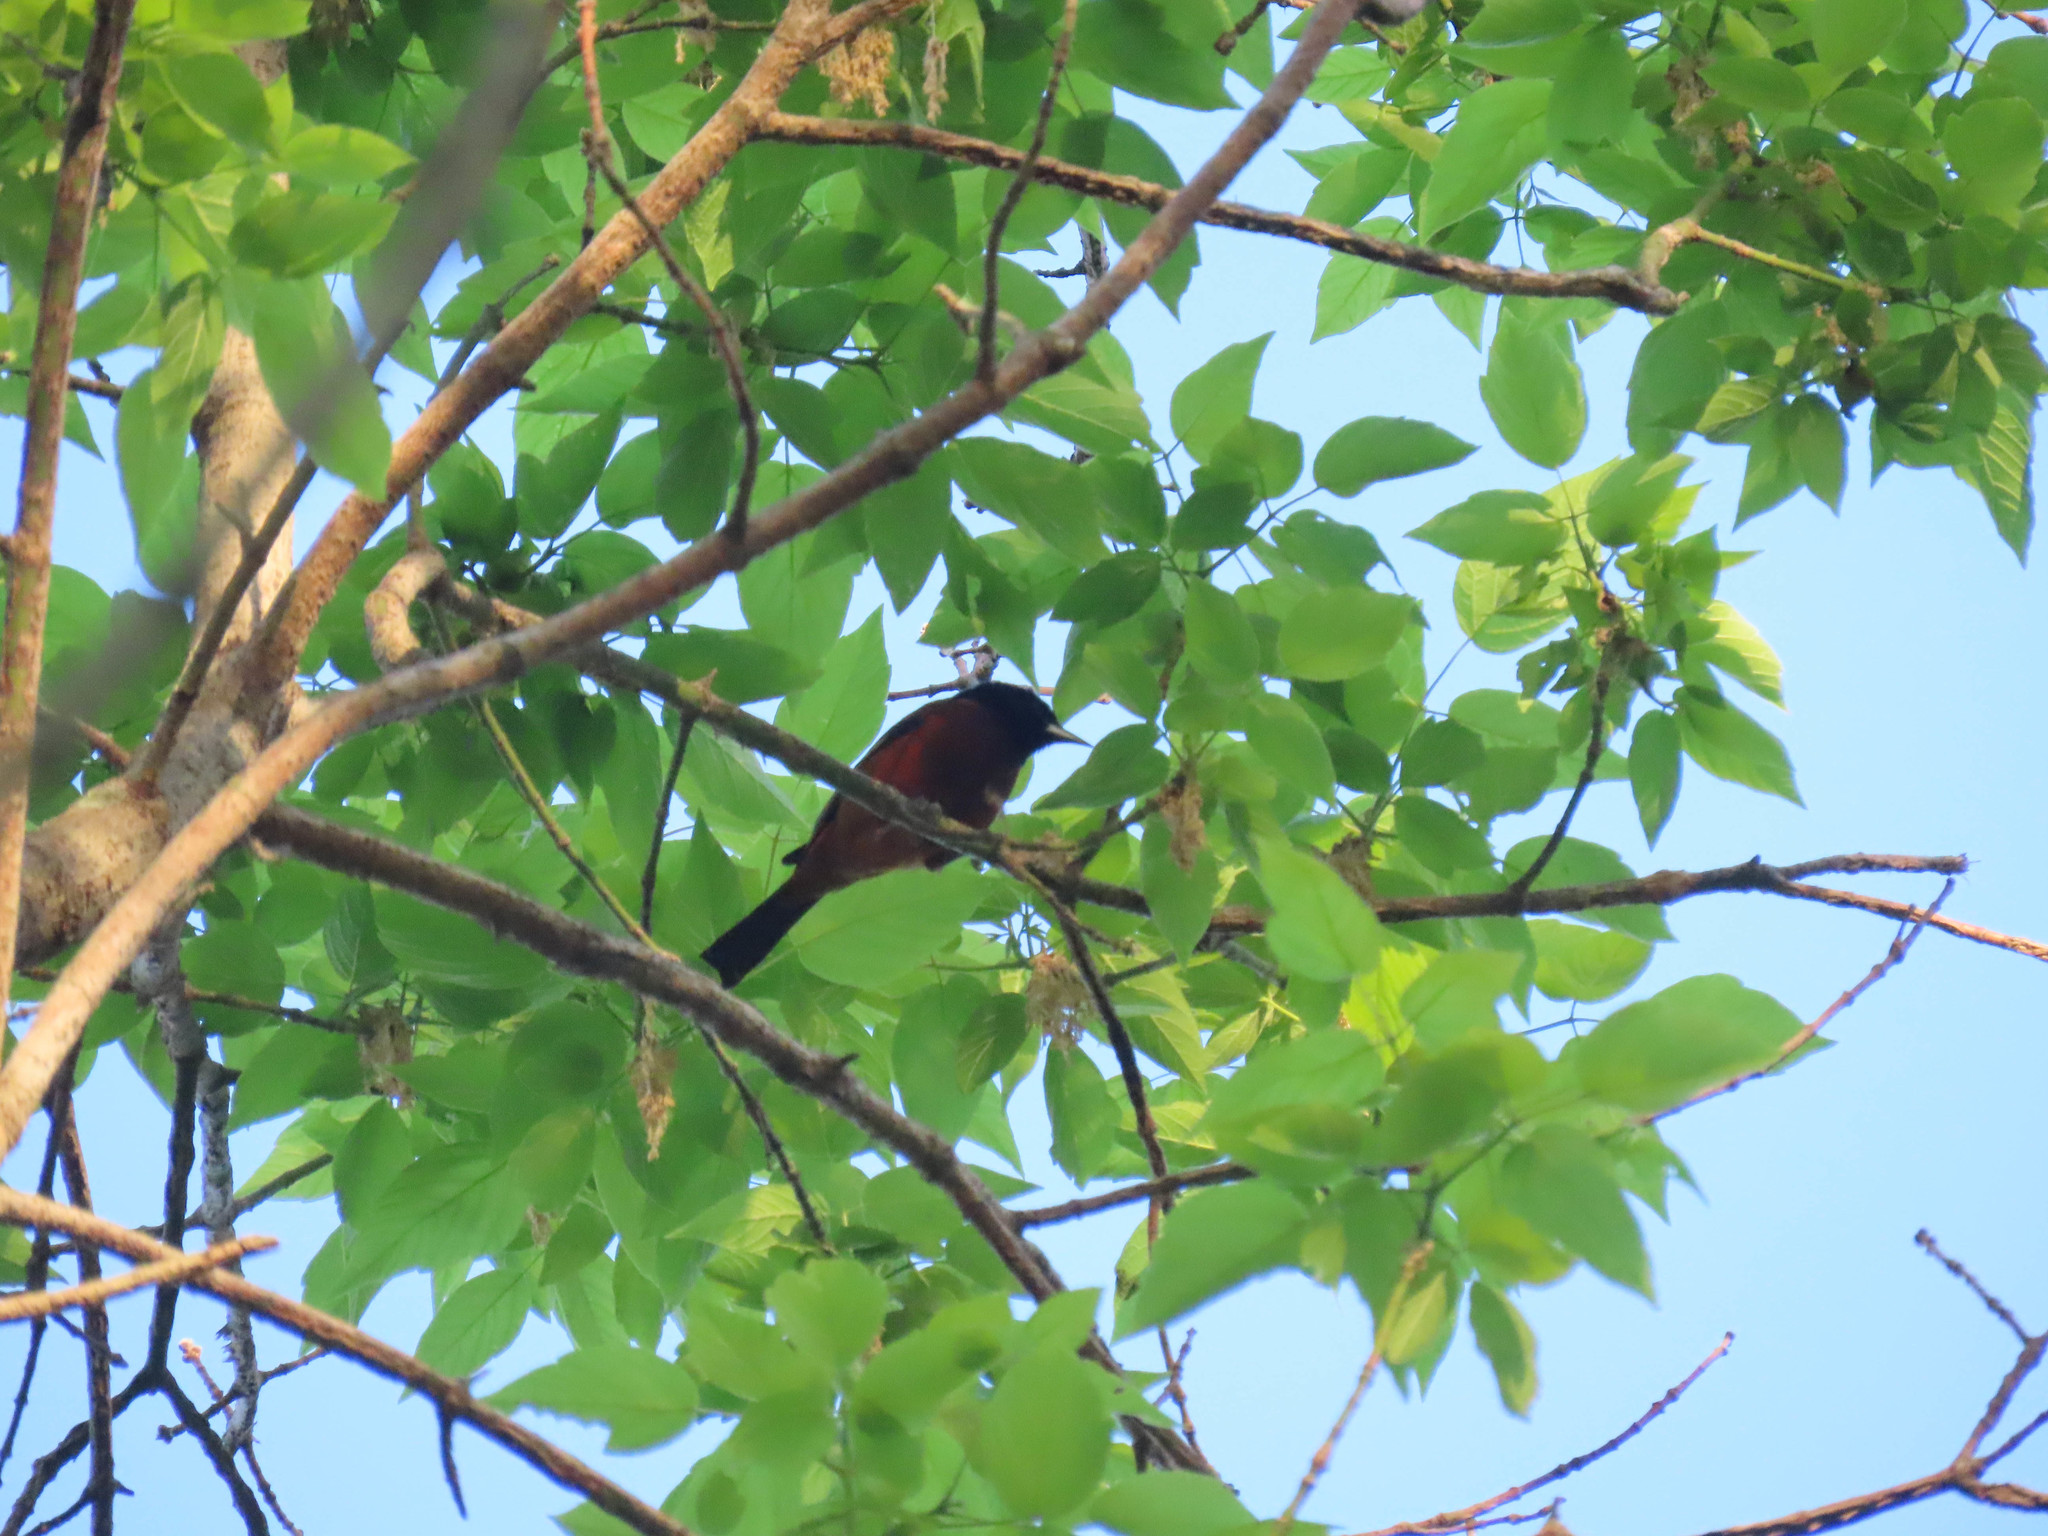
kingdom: Animalia
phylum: Chordata
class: Aves
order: Passeriformes
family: Icteridae
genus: Icterus
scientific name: Icterus spurius
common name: Orchard oriole
